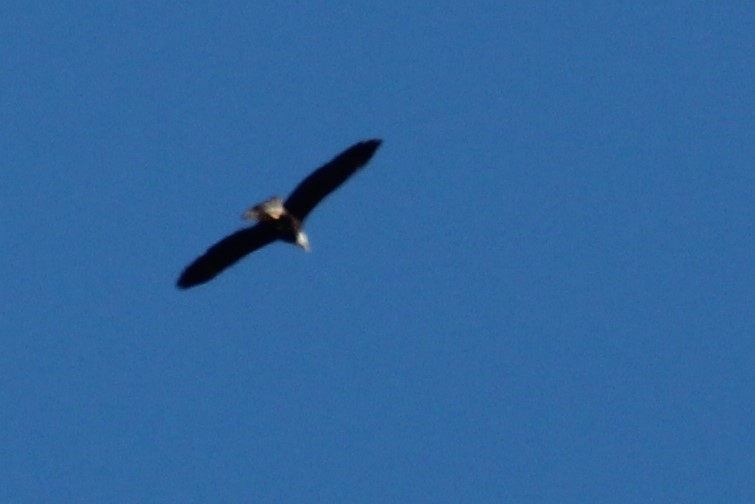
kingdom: Animalia
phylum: Chordata
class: Aves
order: Accipitriformes
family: Accipitridae
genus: Haliaeetus
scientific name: Haliaeetus leucocephalus
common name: Bald eagle
